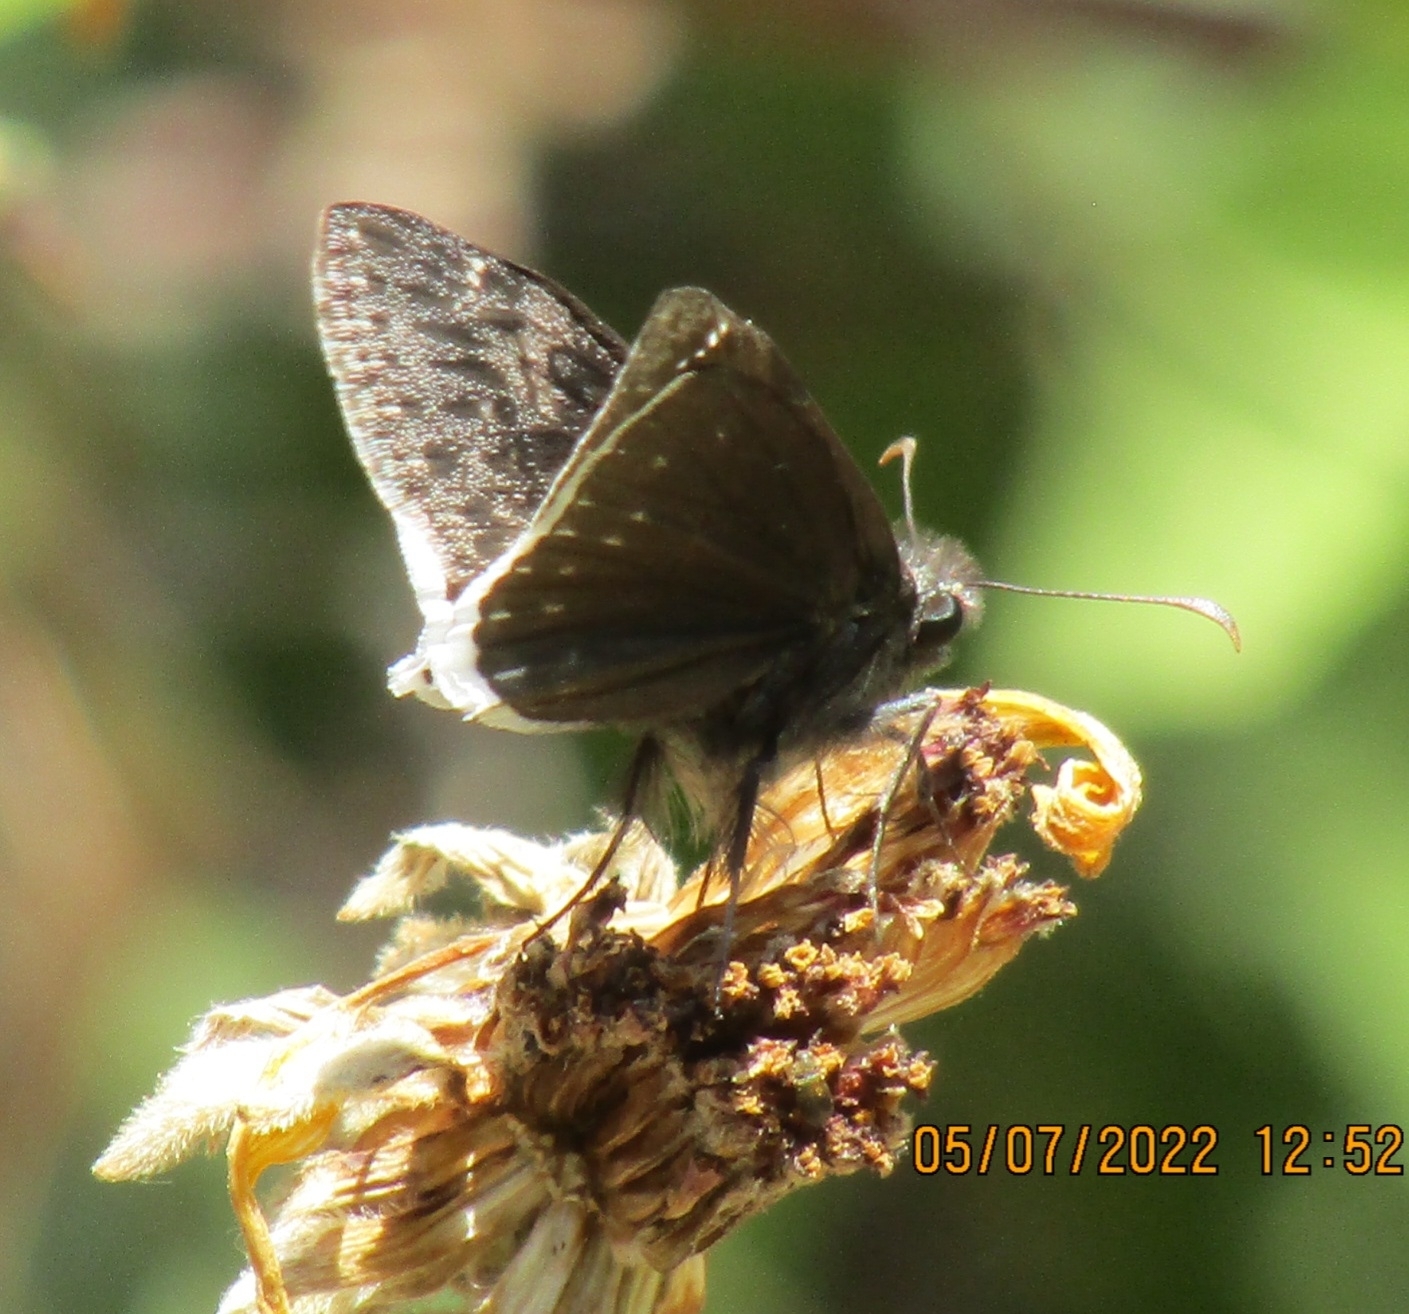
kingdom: Animalia
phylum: Arthropoda
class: Insecta
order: Lepidoptera
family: Hesperiidae
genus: Erynnis
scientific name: Erynnis funeralis
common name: Funereal duskywing
